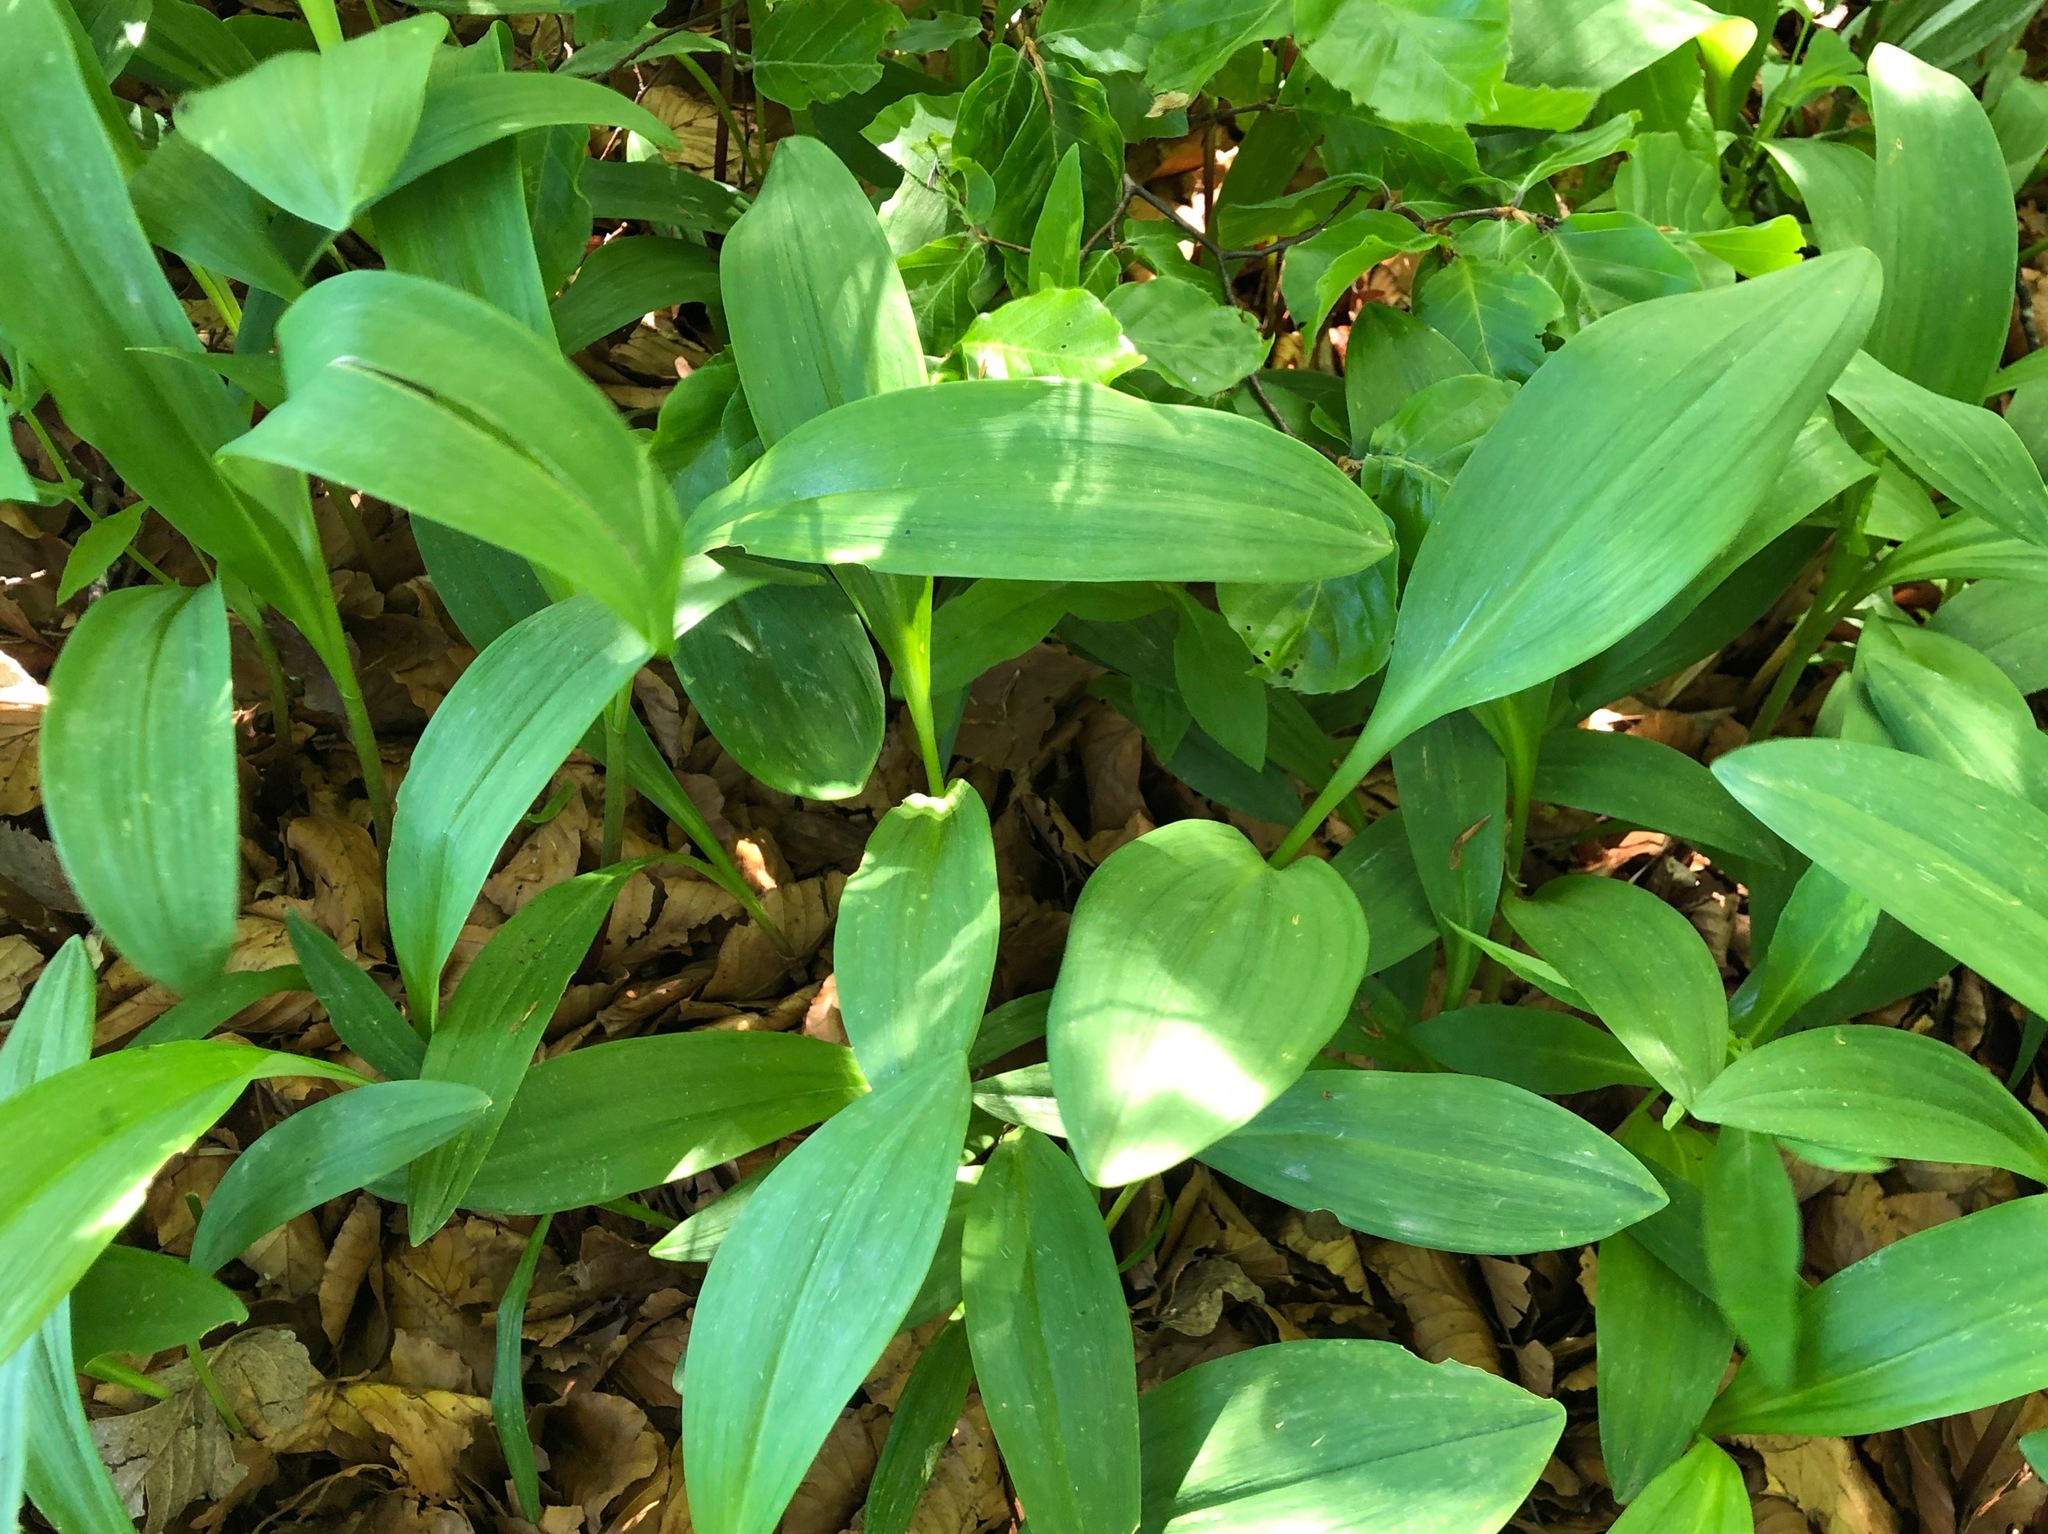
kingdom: Plantae
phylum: Tracheophyta
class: Liliopsida
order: Asparagales
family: Amaryllidaceae
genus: Allium
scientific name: Allium victorialis
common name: Alpine leek
